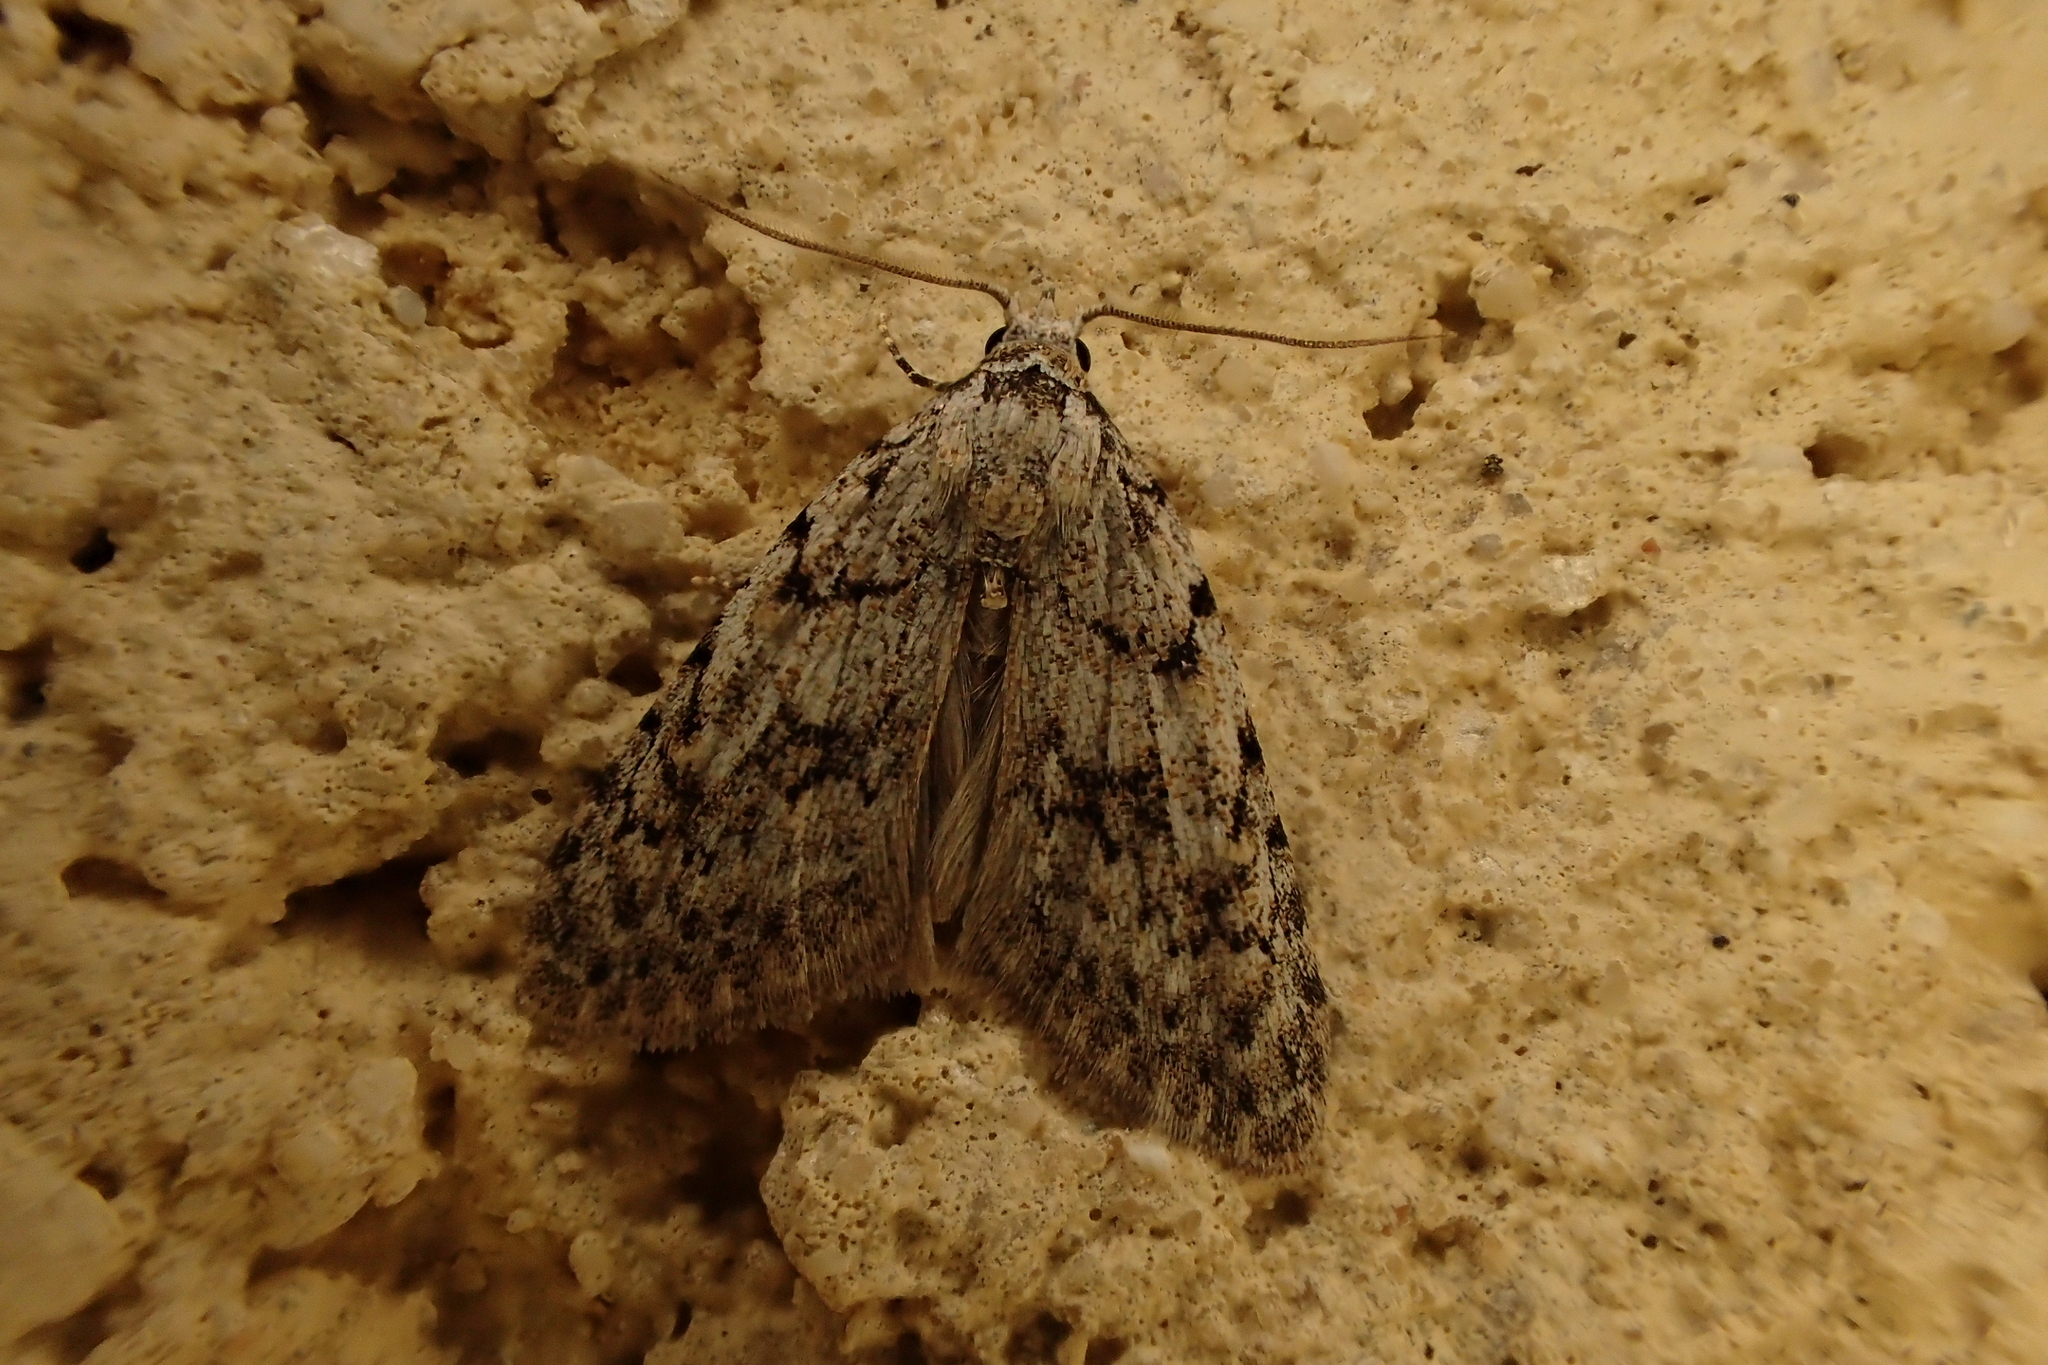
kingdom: Animalia
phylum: Arthropoda
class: Insecta
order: Lepidoptera
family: Nolidae
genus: Nola
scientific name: Nola cicatricalis
